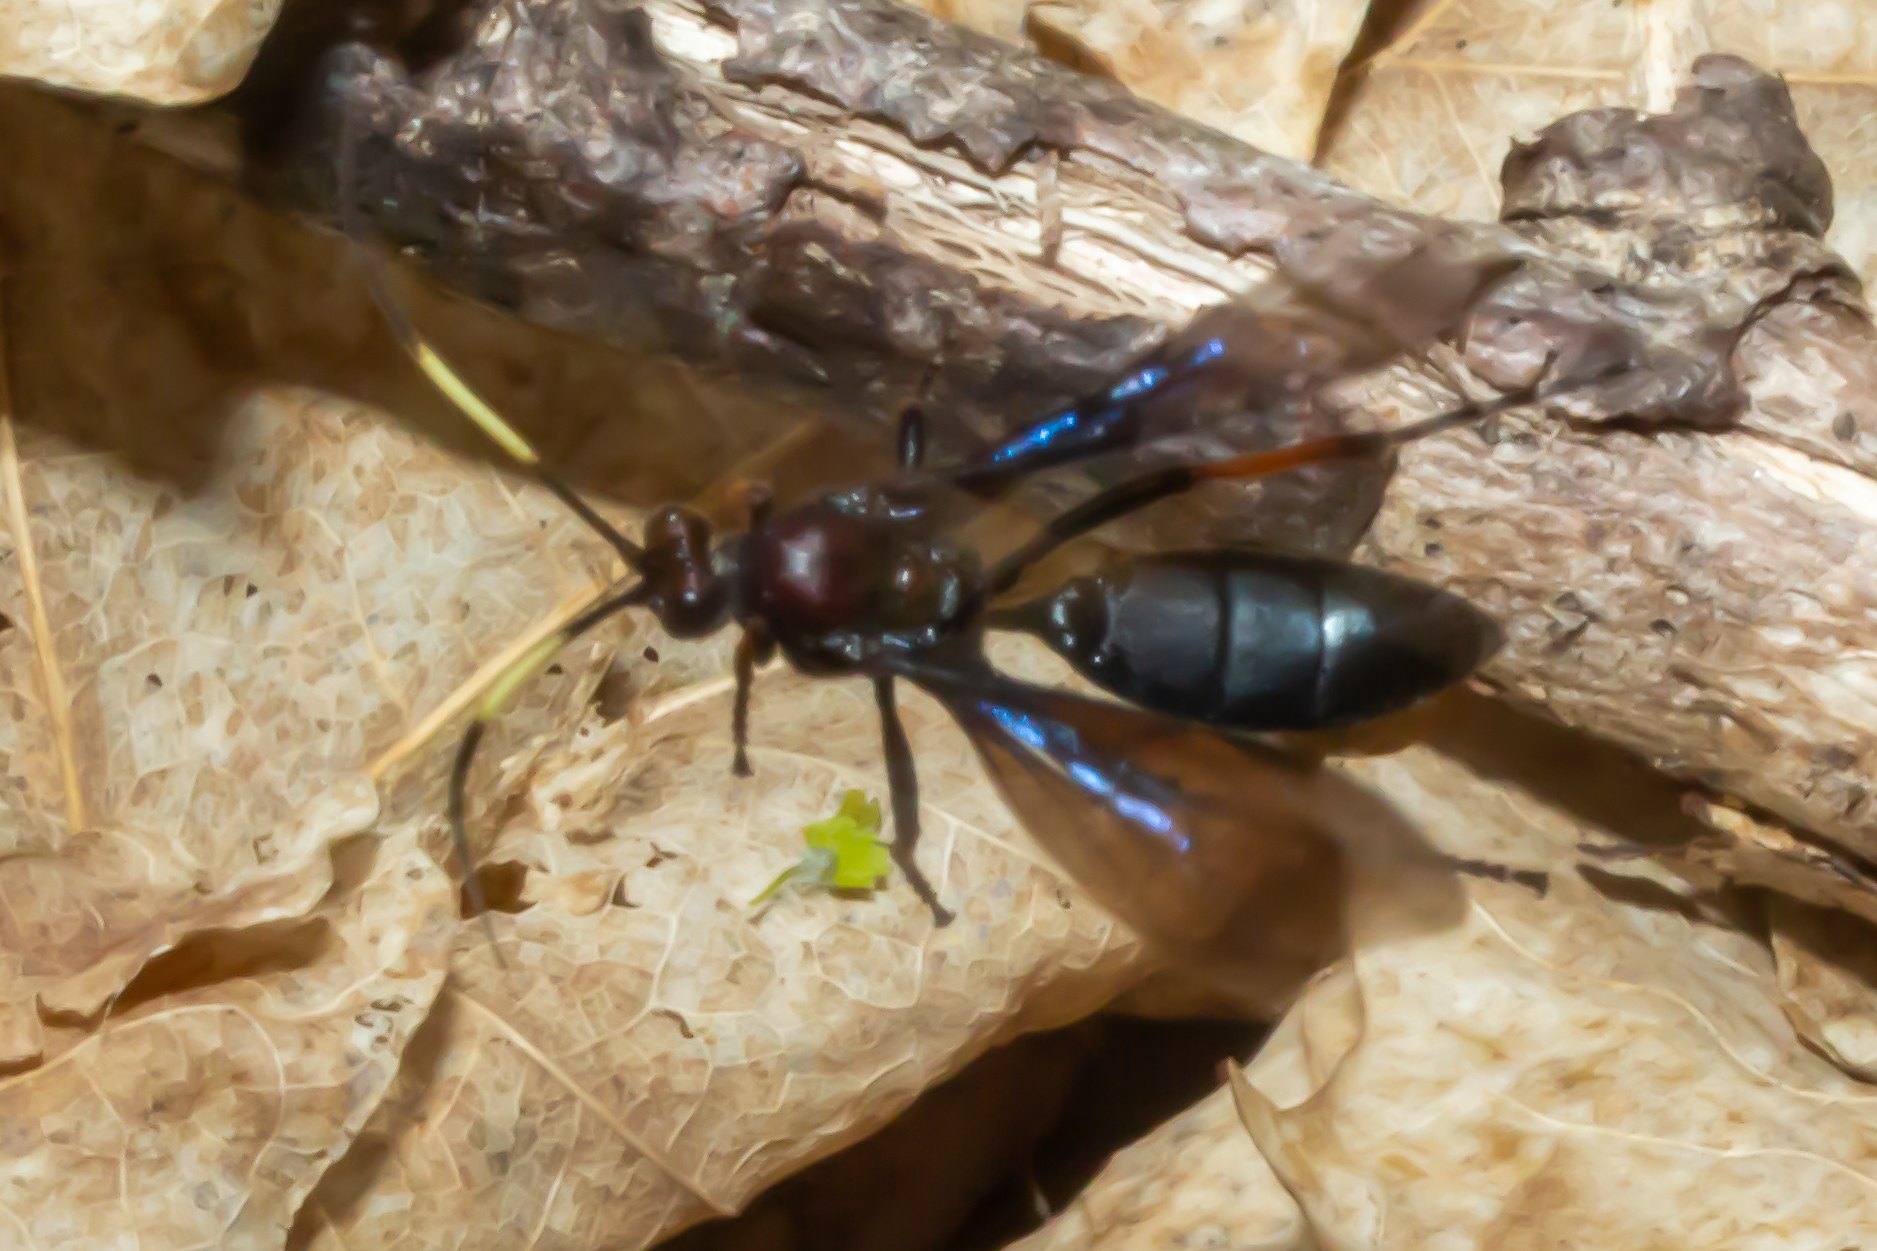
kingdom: Animalia
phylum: Arthropoda
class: Insecta
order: Hymenoptera
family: Ichneumonidae
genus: Ichneumon
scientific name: Ichneumon centrator
